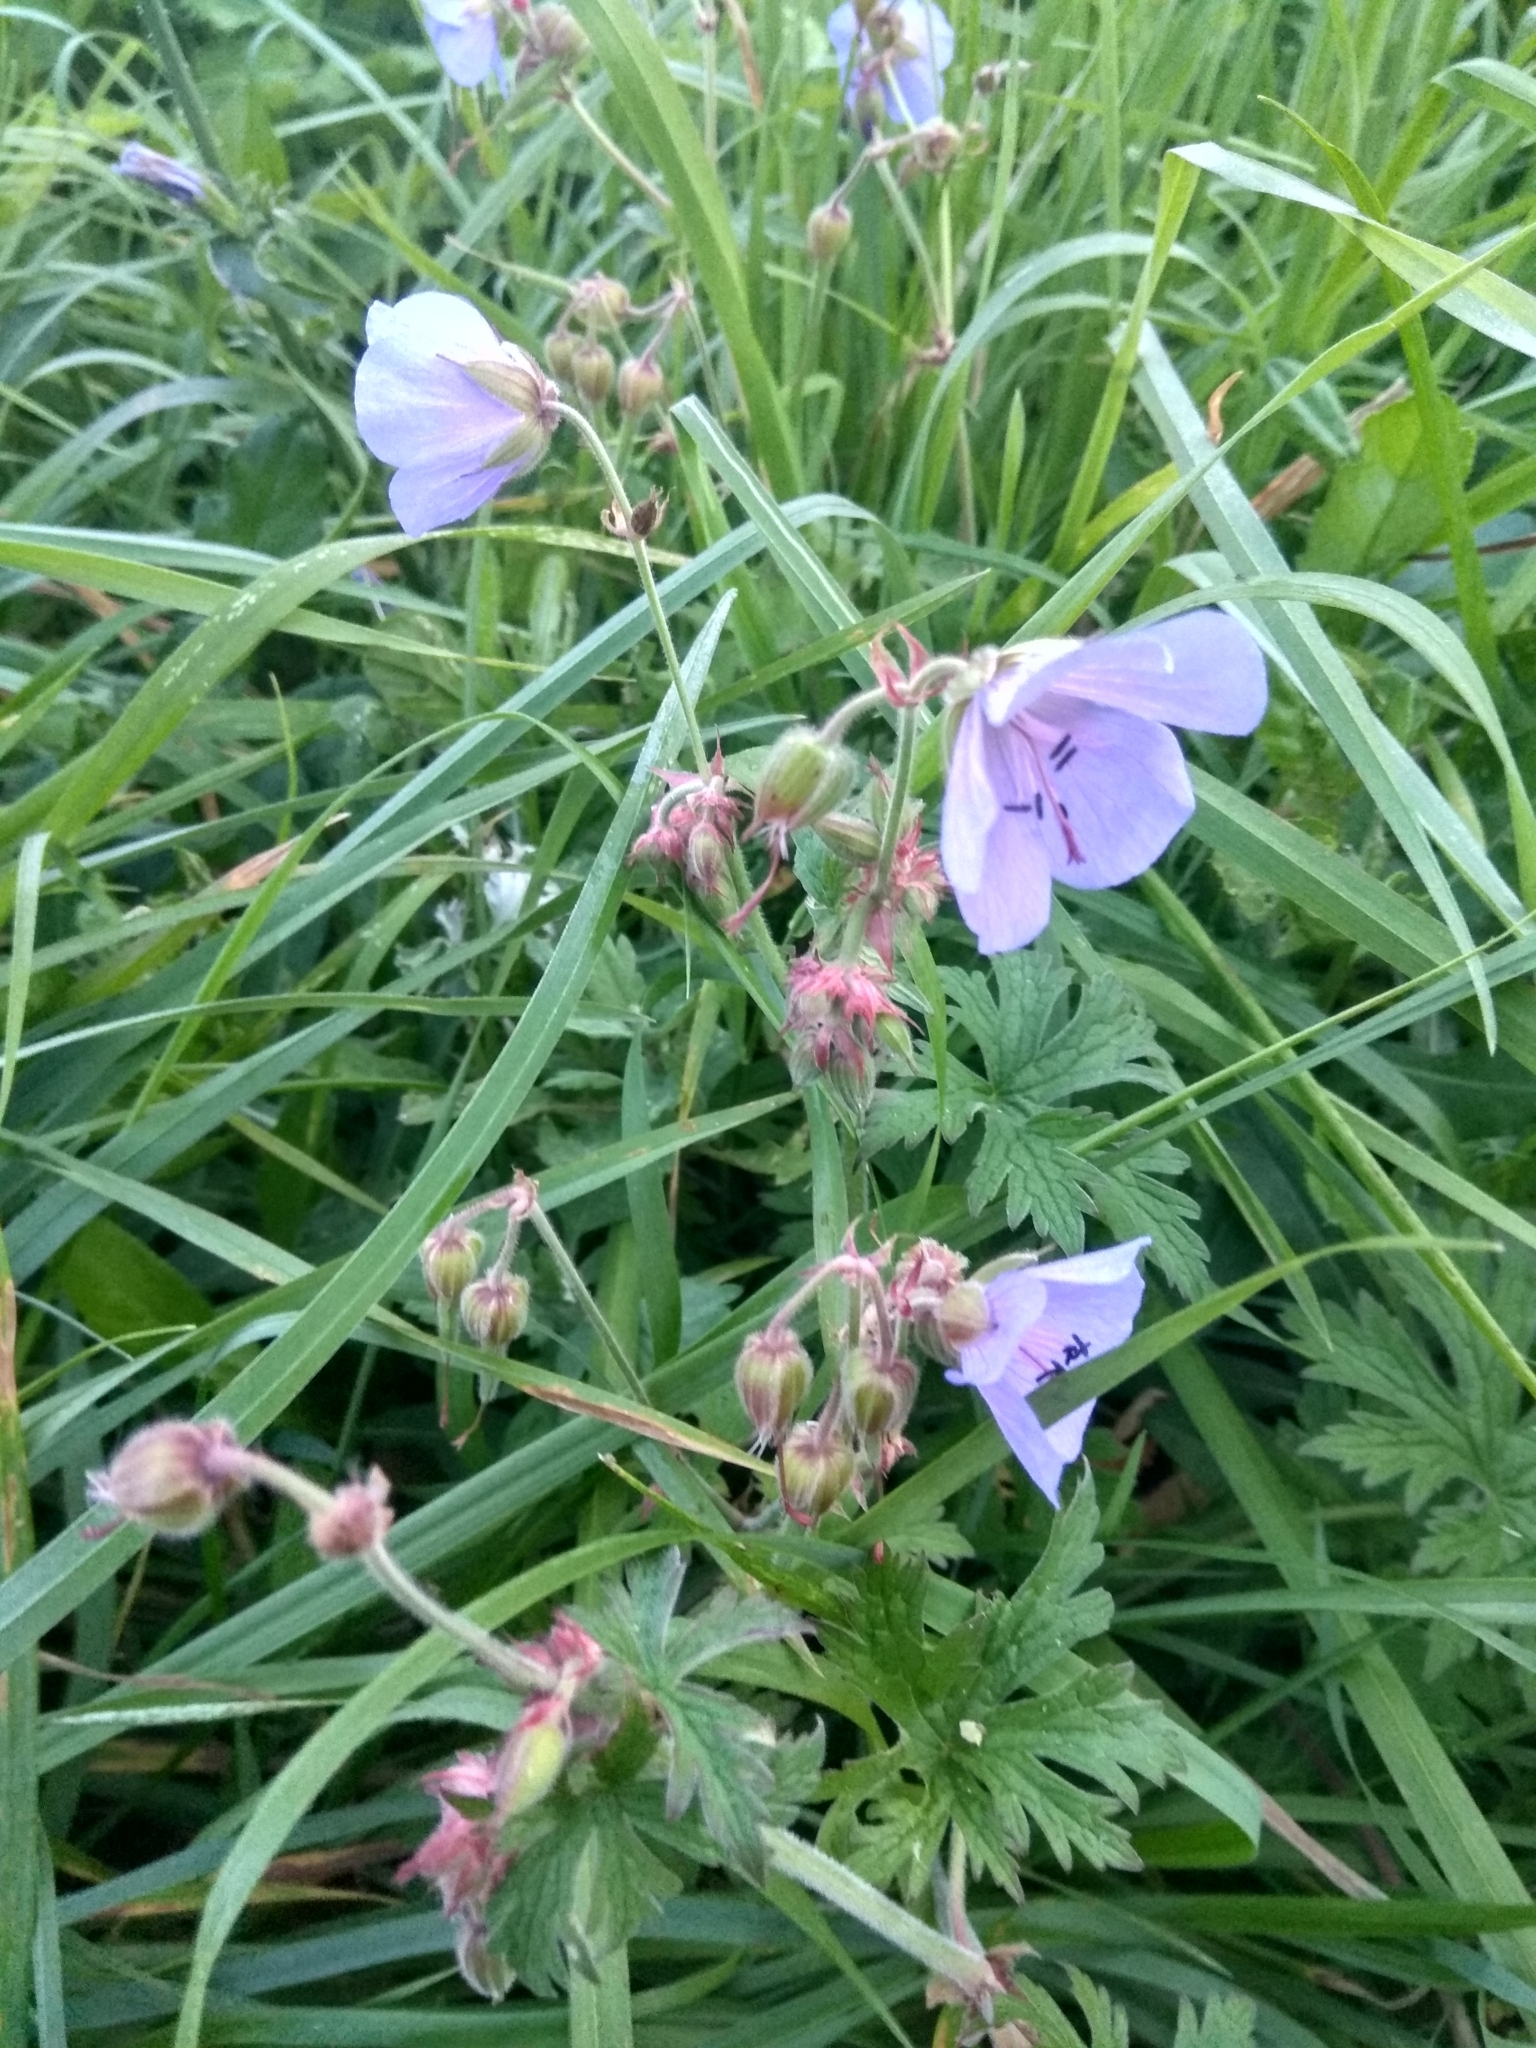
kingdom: Plantae
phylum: Tracheophyta
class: Magnoliopsida
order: Geraniales
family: Geraniaceae
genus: Geranium
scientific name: Geranium pratense
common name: Meadow crane's-bill
